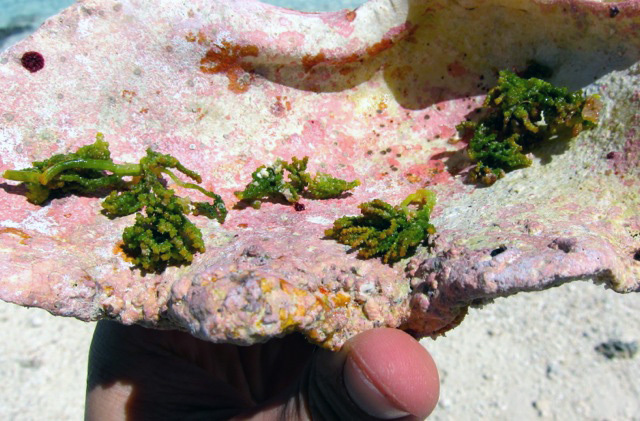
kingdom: Plantae
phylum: Chlorophyta
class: Ulvophyceae
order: Bryopsidales
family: Caulerpaceae
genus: Caulerpa
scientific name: Caulerpa cupressoides
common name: Cactus tree algae
